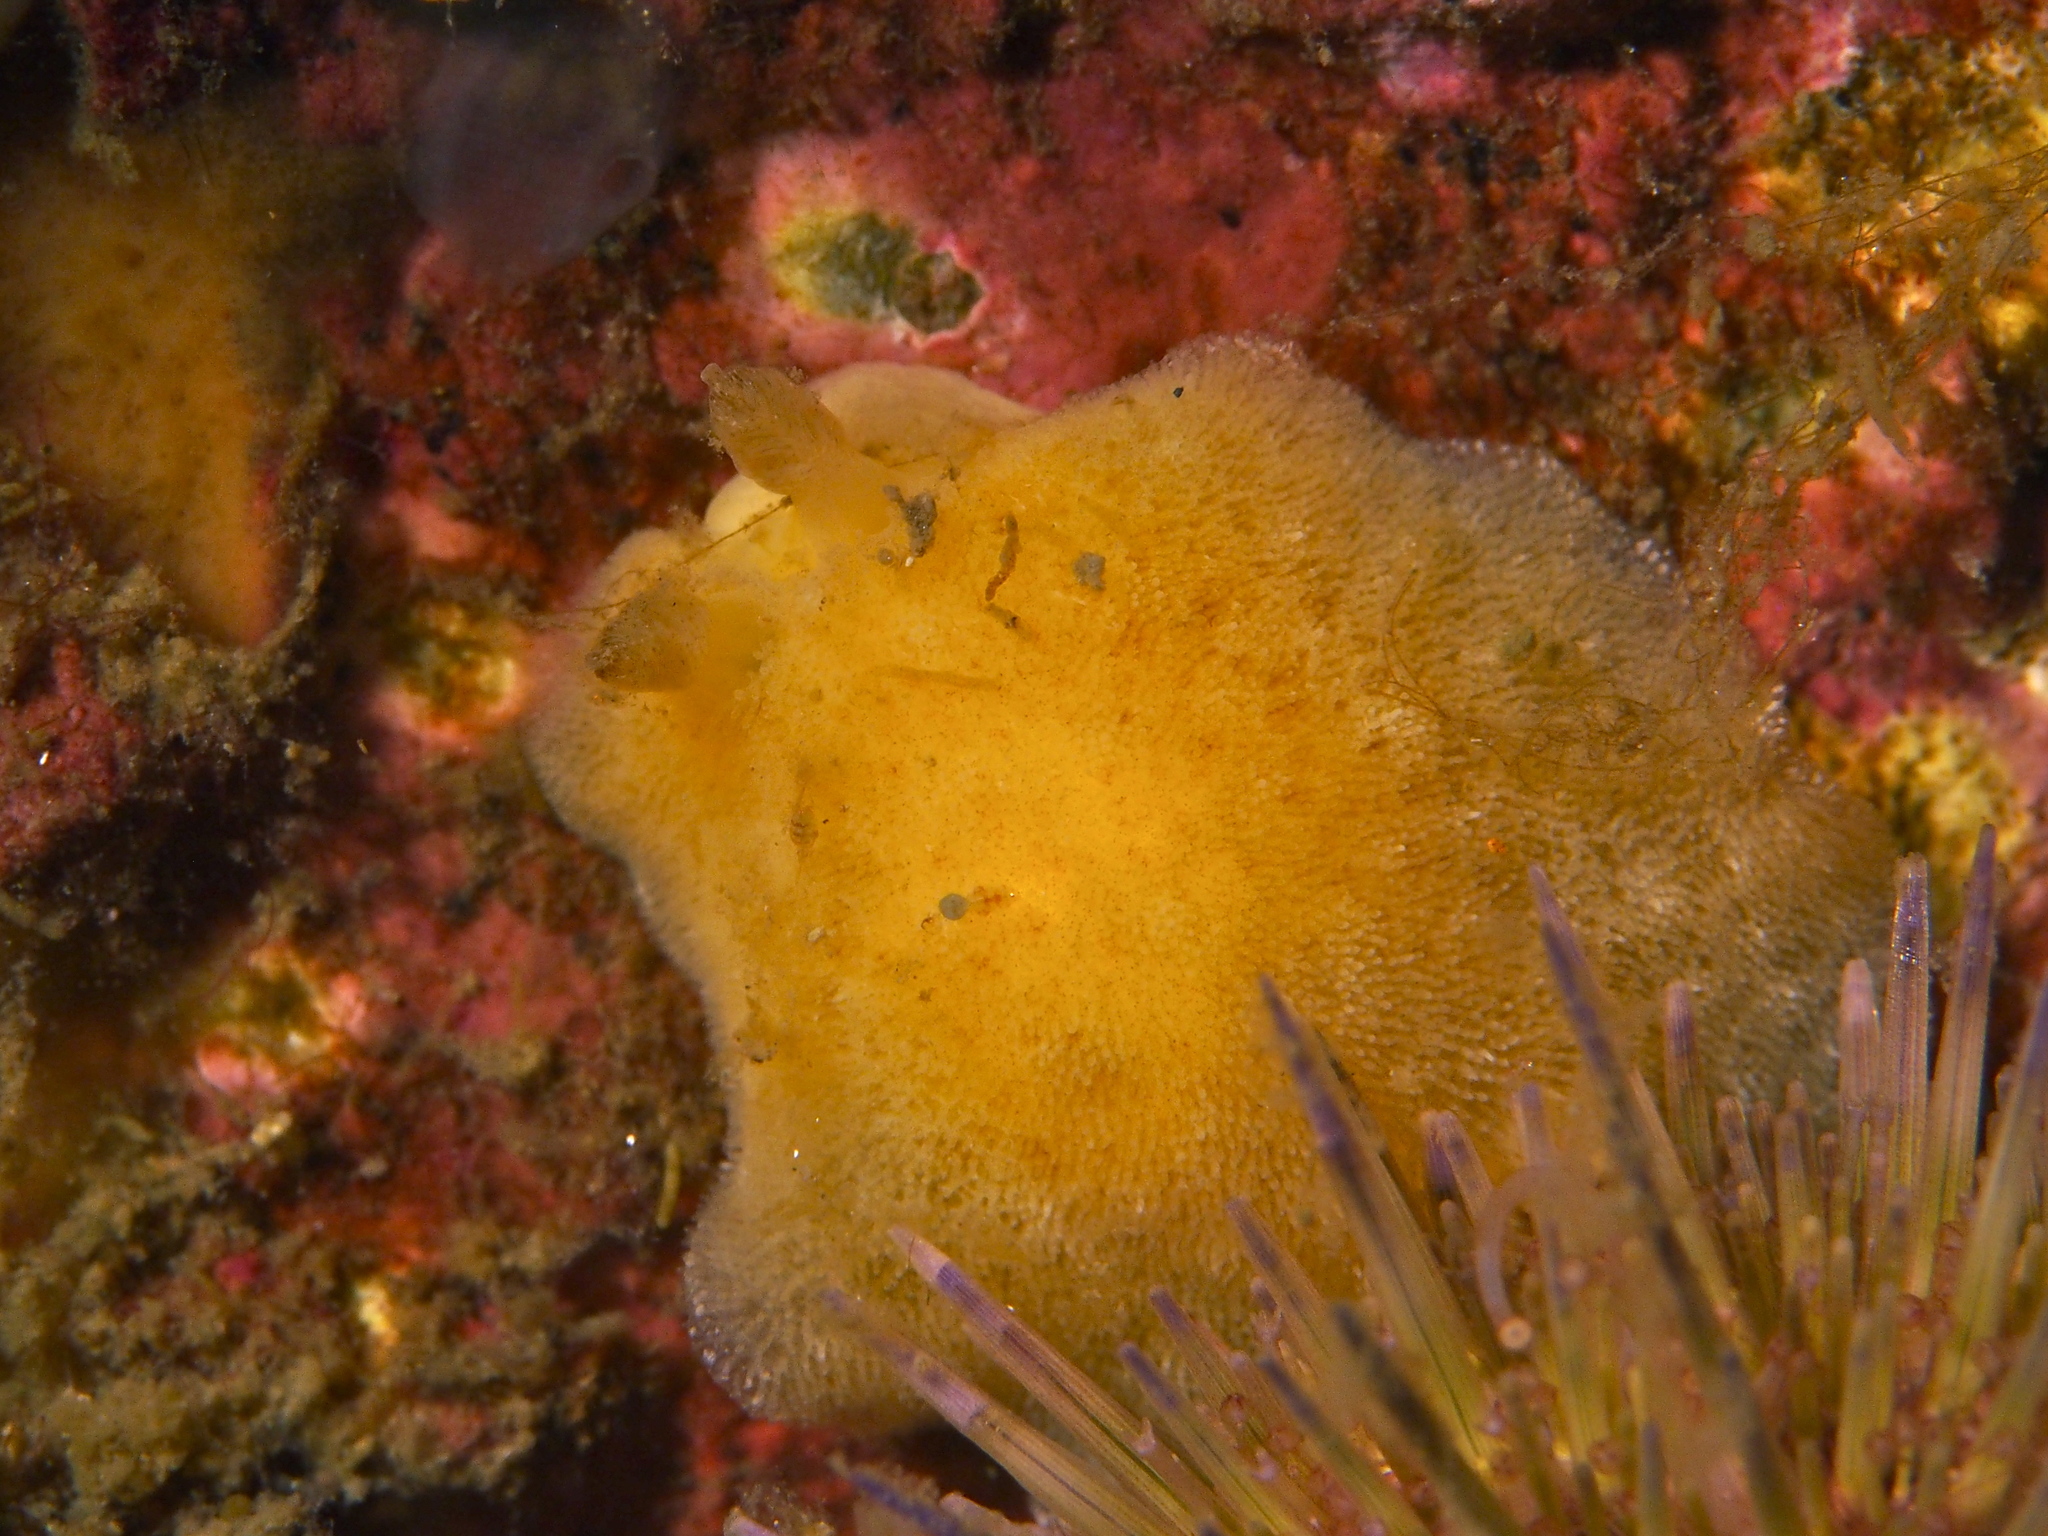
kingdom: Animalia
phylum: Mollusca
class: Gastropoda
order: Nudibranchia
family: Discodorididae
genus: Jorunna
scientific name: Jorunna tomentosa
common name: Grey sea slug
